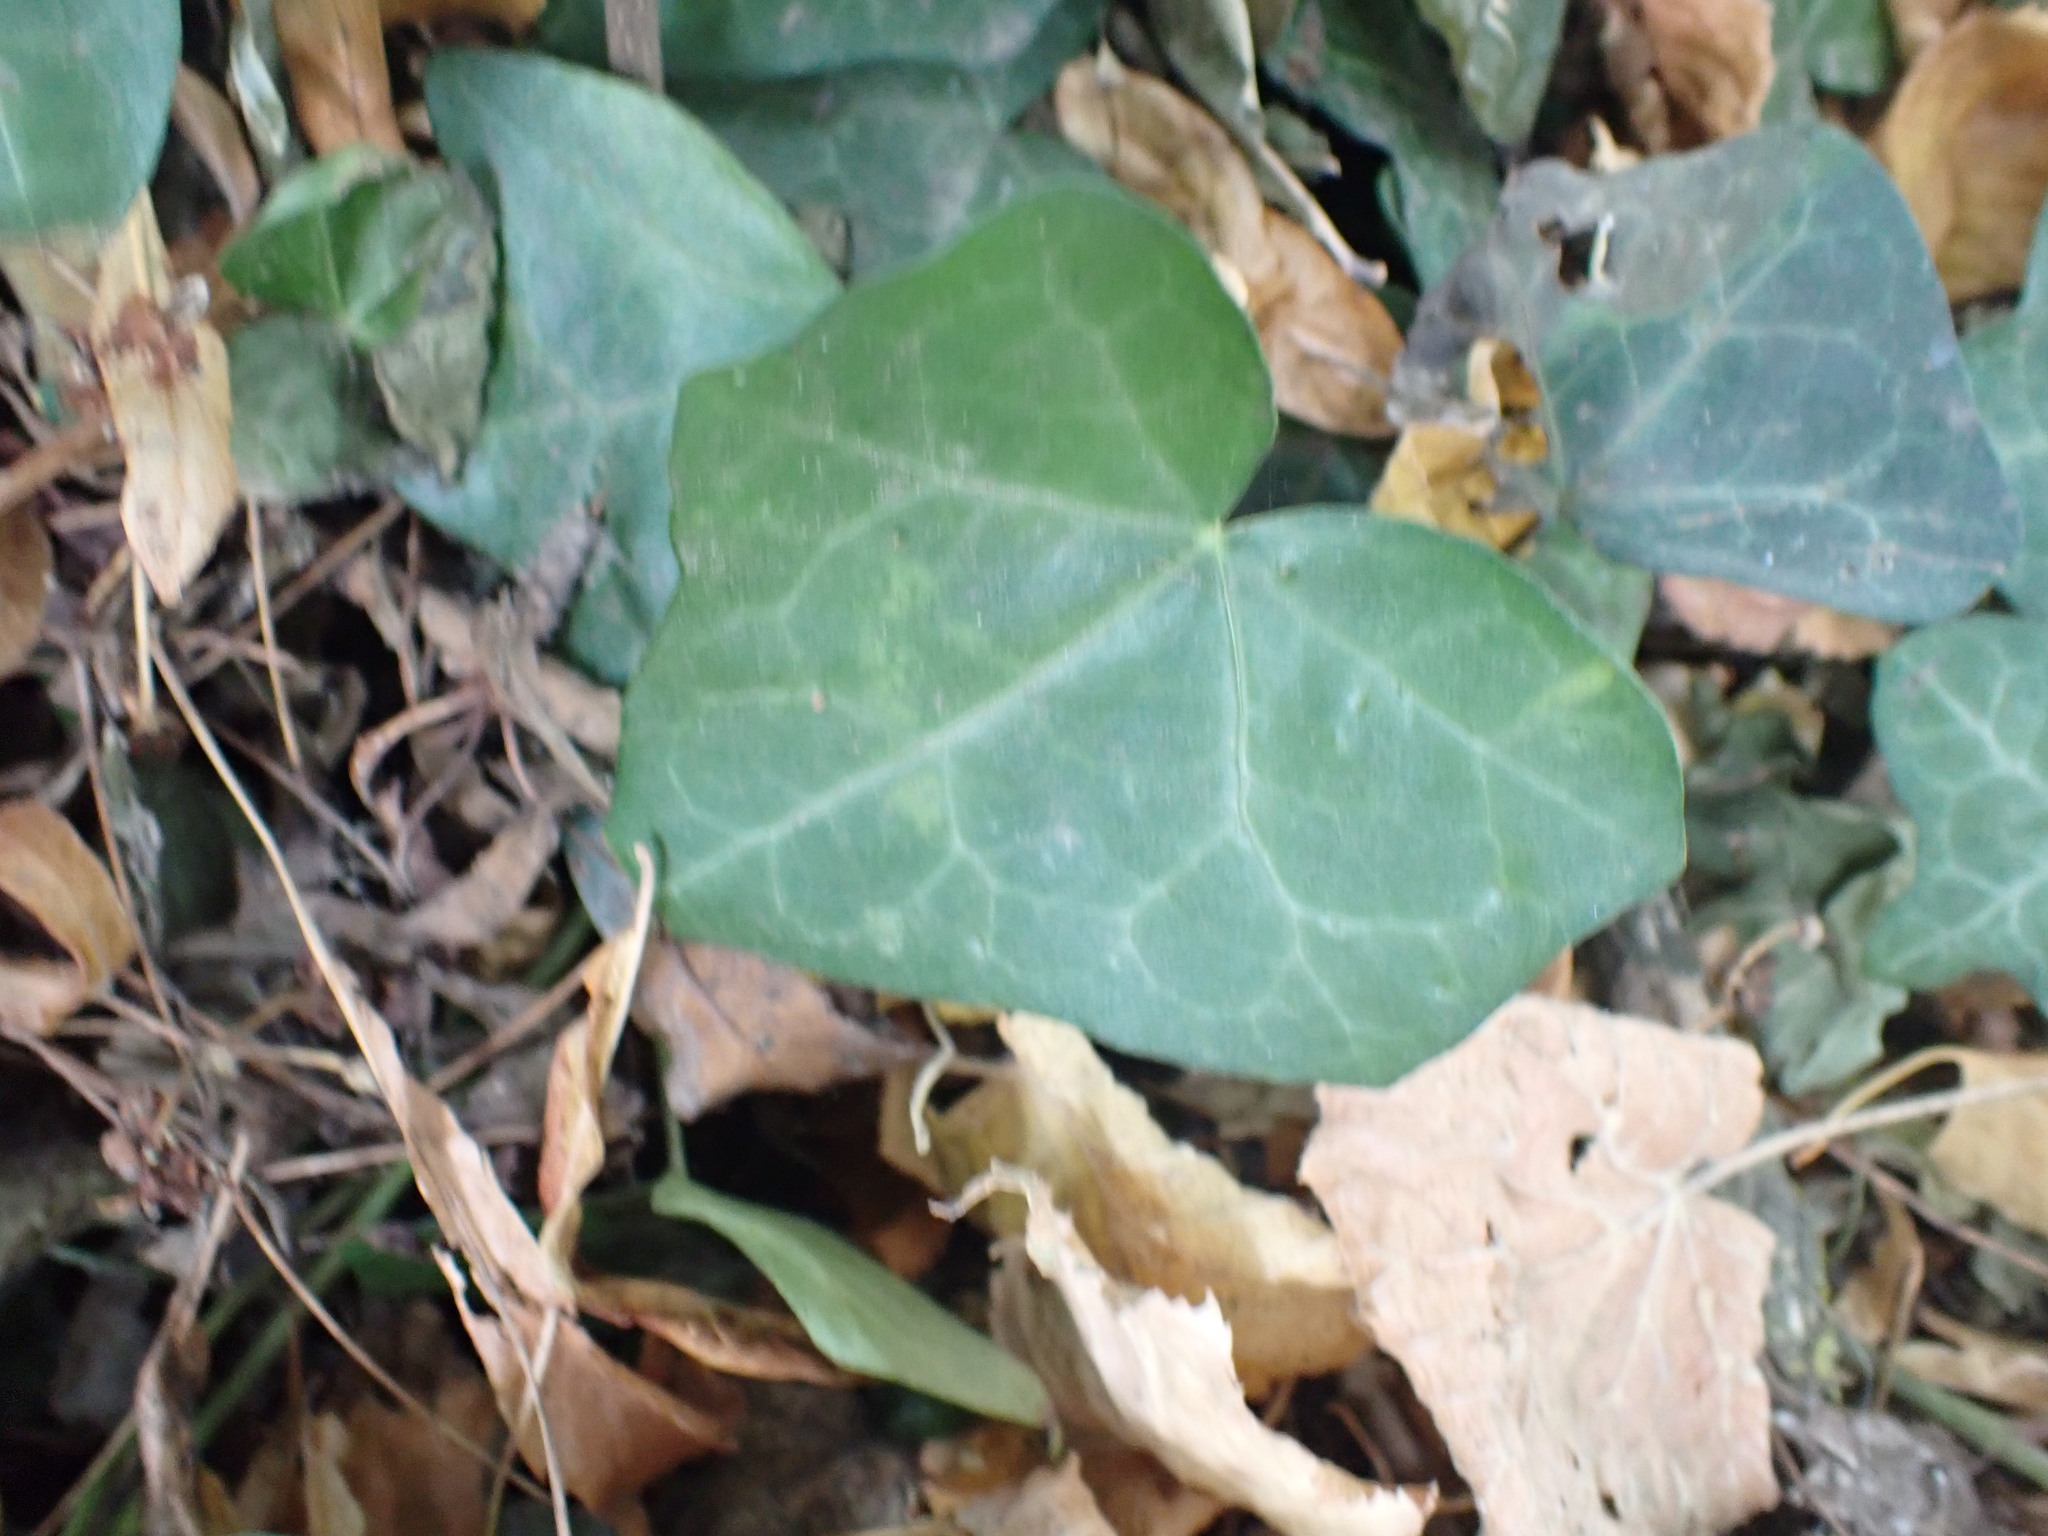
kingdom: Plantae
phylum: Tracheophyta
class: Magnoliopsida
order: Apiales
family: Araliaceae
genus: Hedera
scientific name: Hedera helix
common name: Ivy
